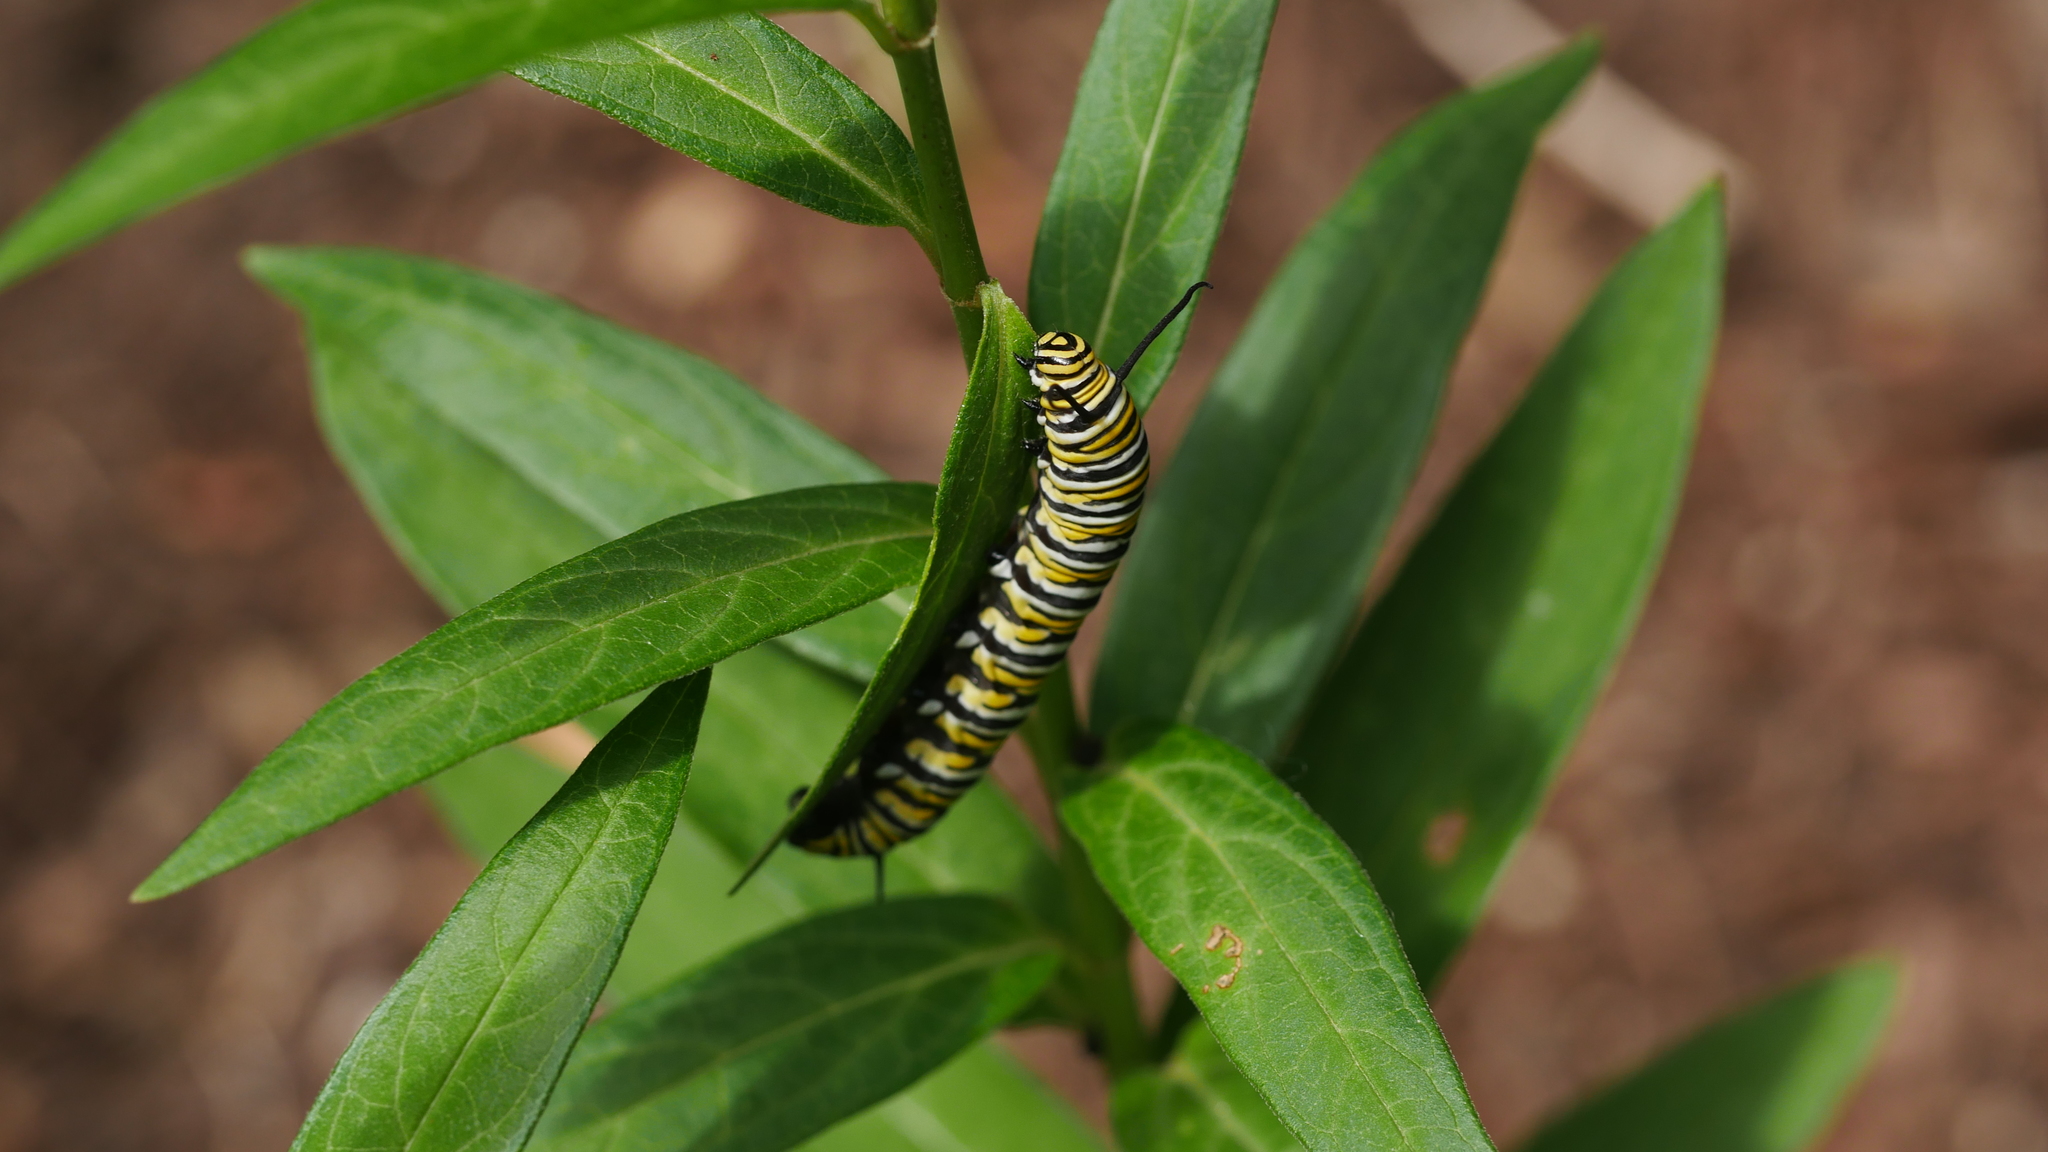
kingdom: Animalia
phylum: Arthropoda
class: Insecta
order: Lepidoptera
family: Nymphalidae
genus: Danaus
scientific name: Danaus plexippus
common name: Monarch
